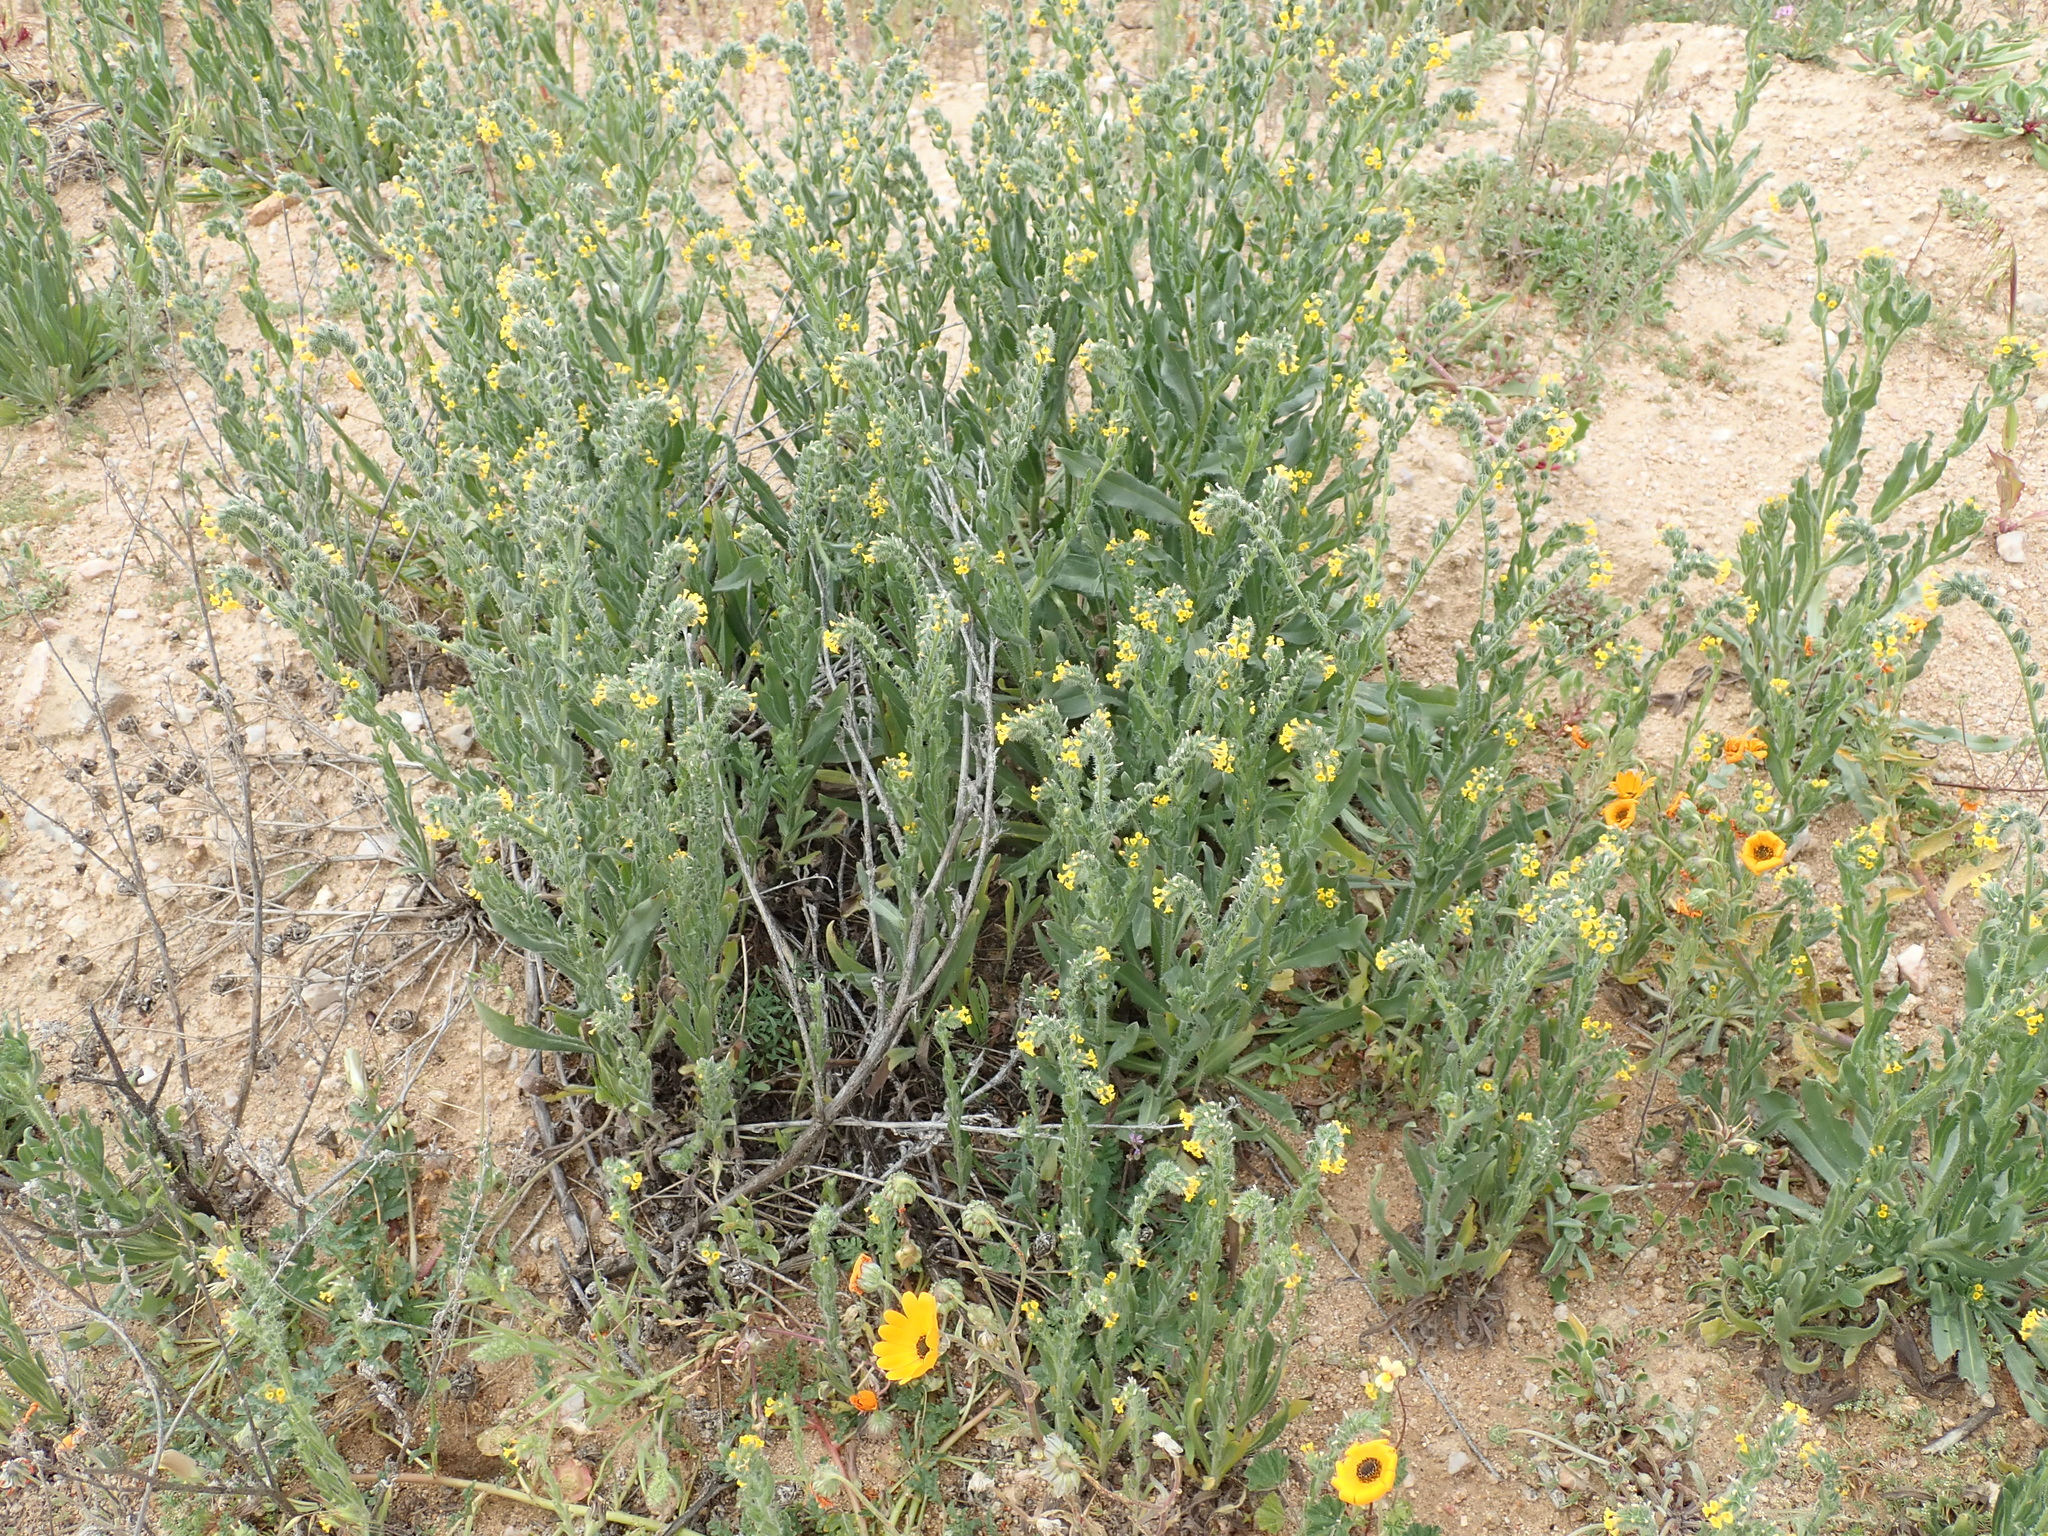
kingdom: Plantae
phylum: Tracheophyta
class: Magnoliopsida
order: Boraginales
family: Boraginaceae
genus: Amsinckia
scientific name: Amsinckia menziesii
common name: Menzies' fiddleneck
